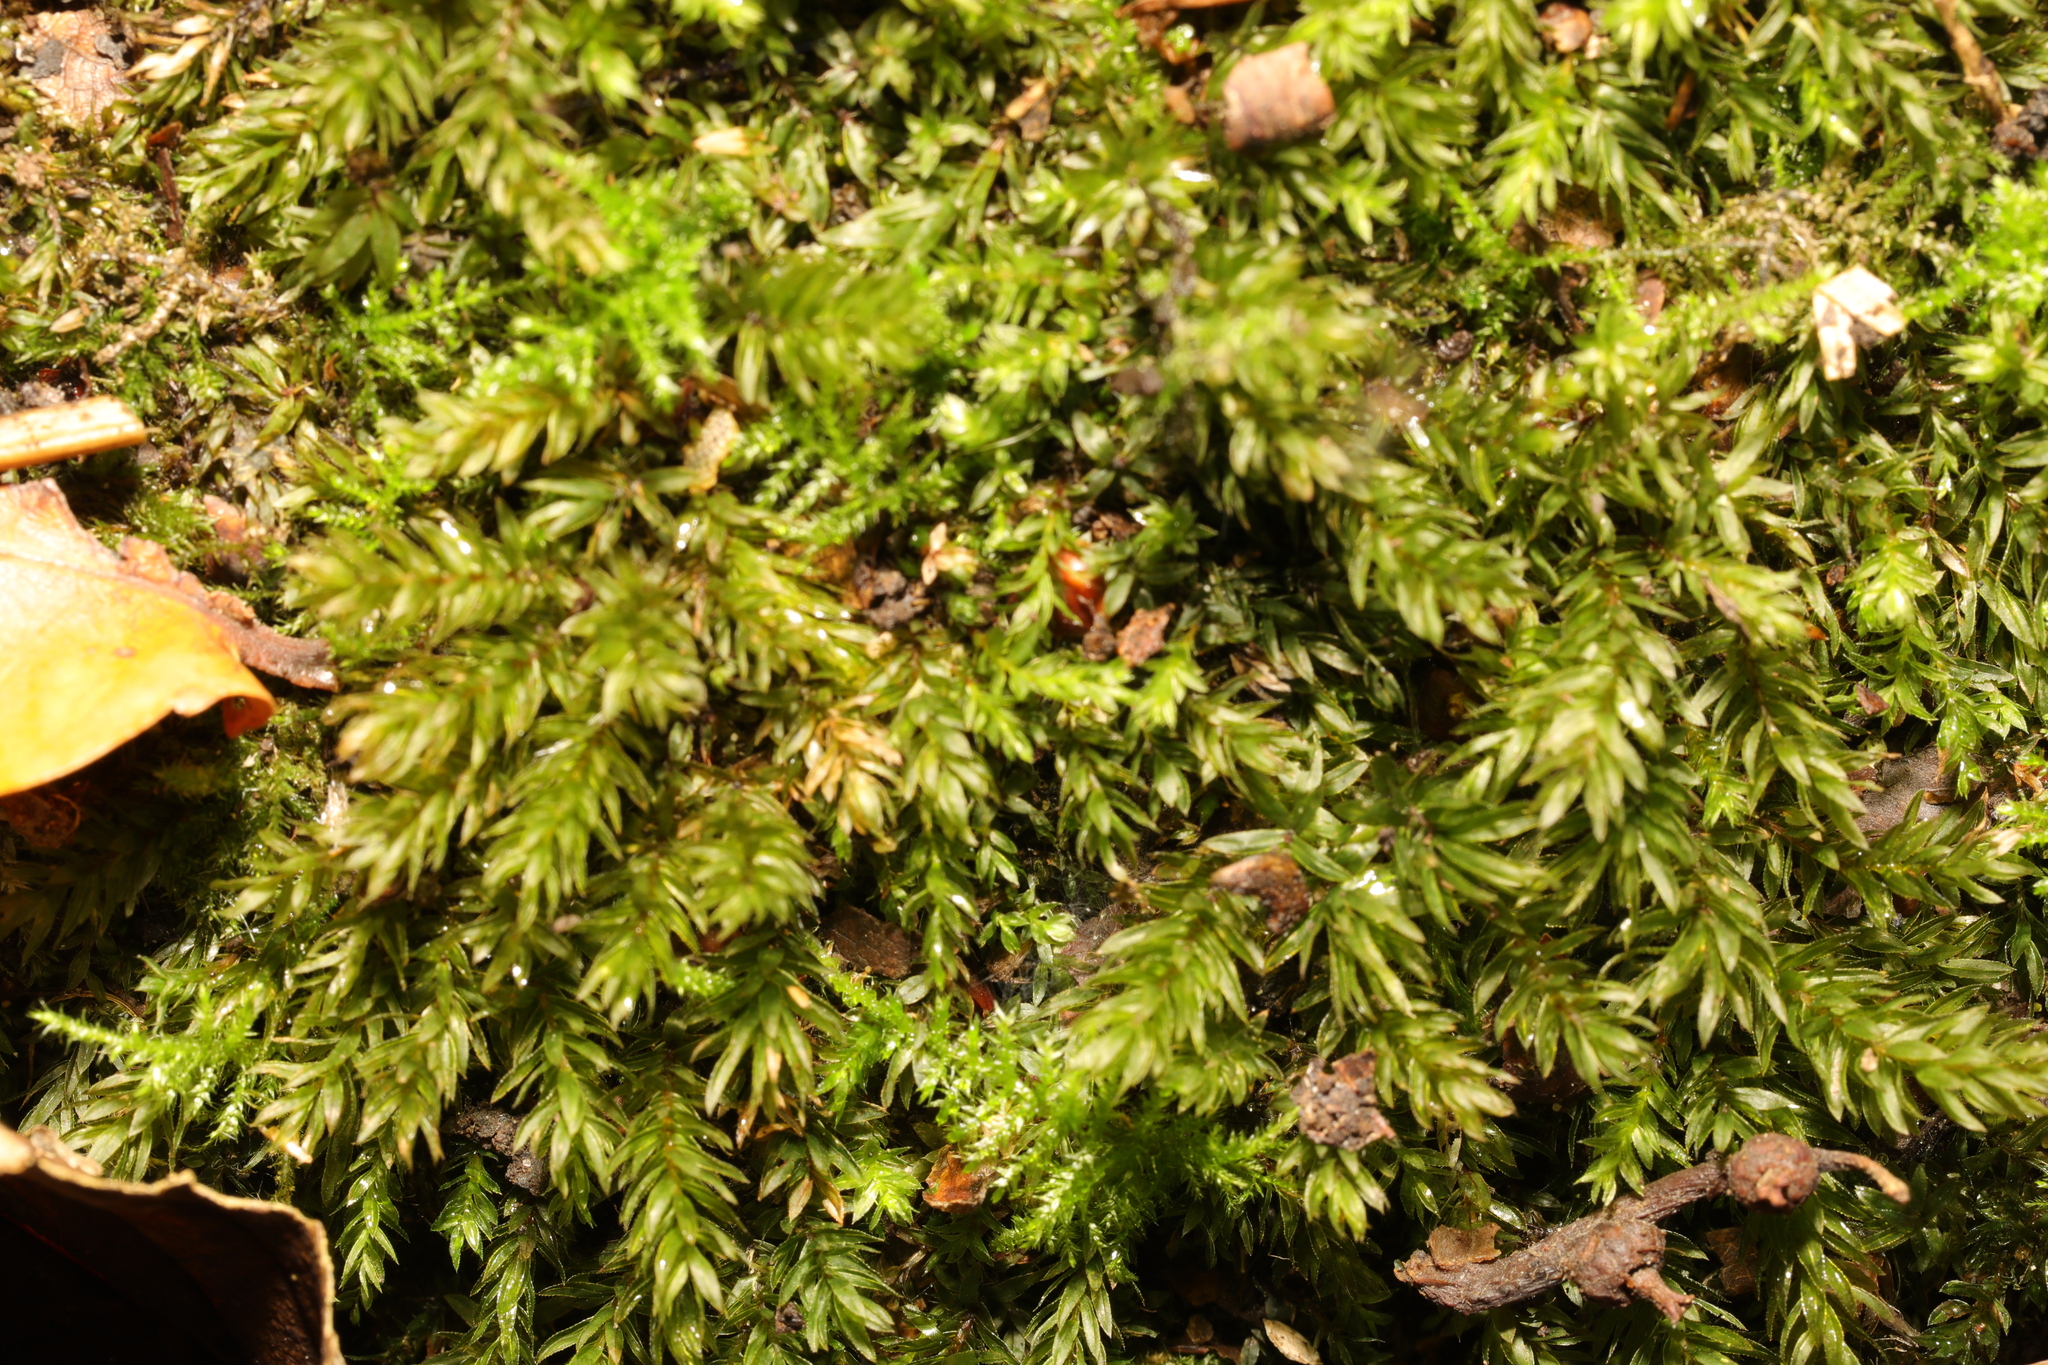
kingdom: Plantae
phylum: Bryophyta
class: Bryopsida
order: Bryales
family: Mniaceae
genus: Mnium
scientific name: Mnium hornum
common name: Swan's-neck leafy moss
